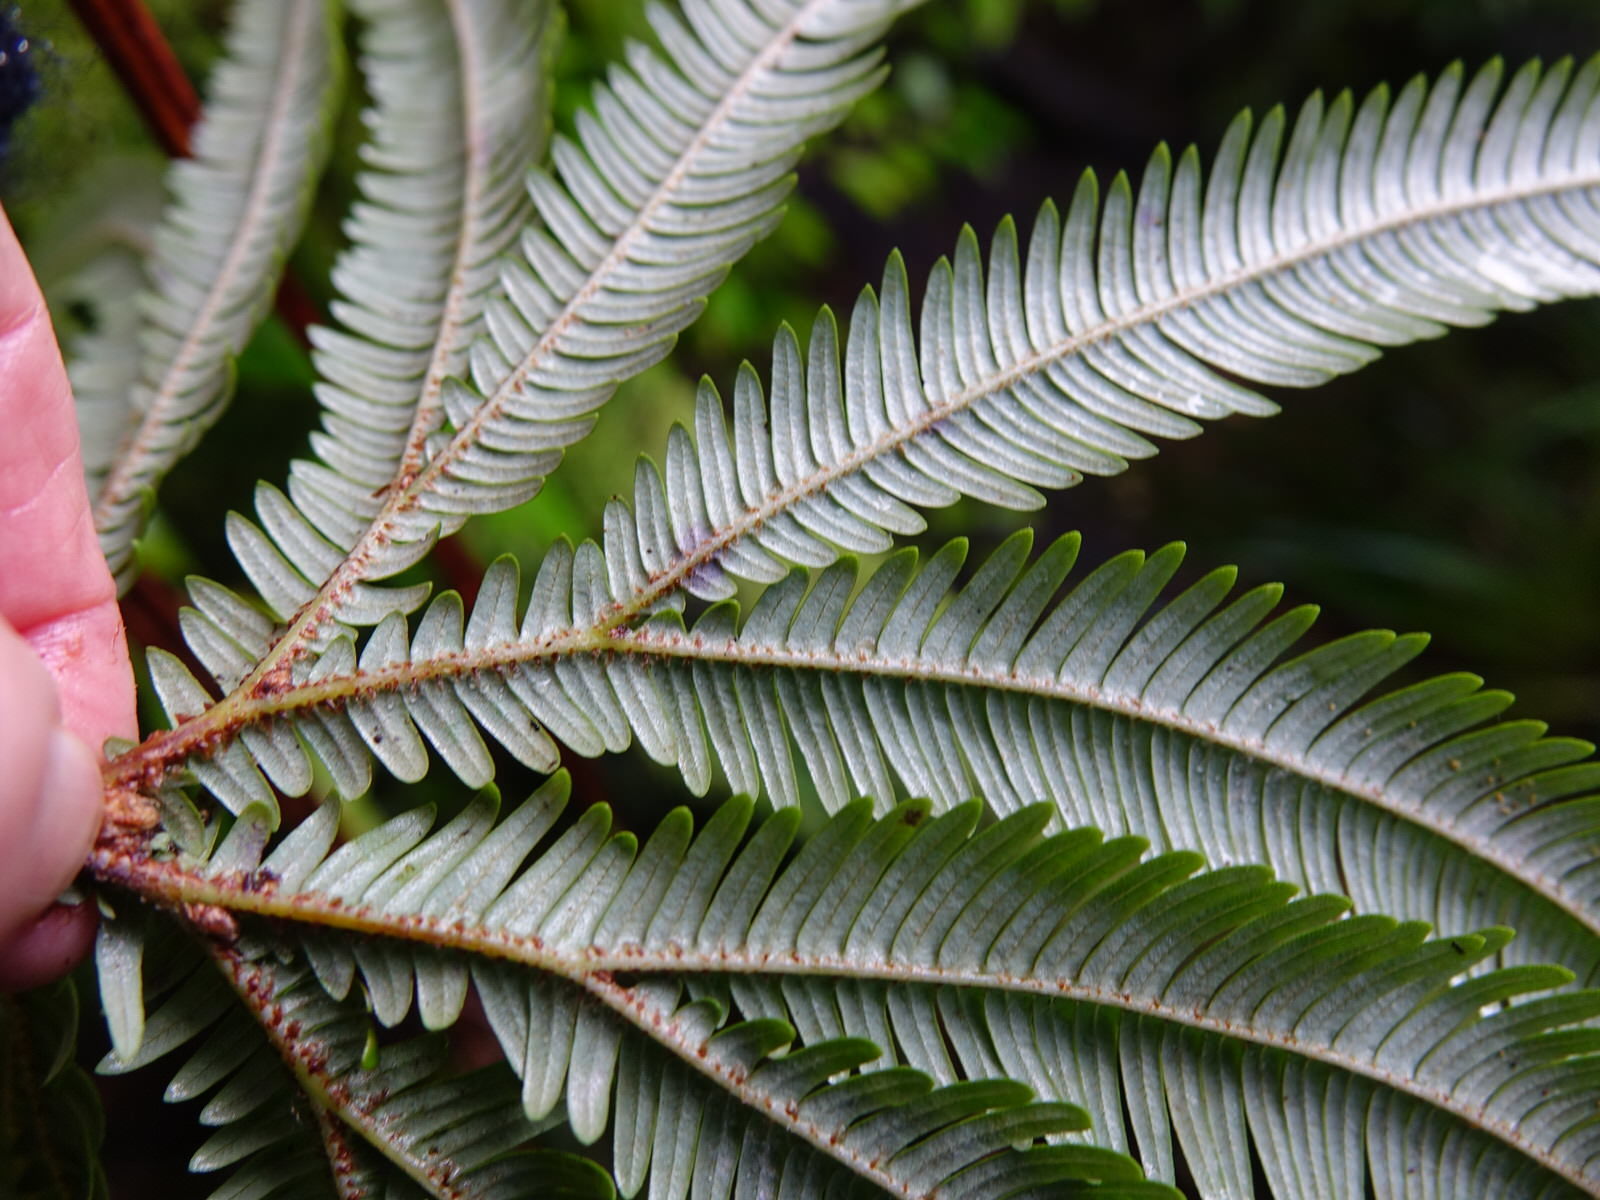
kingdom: Plantae
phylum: Tracheophyta
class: Polypodiopsida
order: Gleicheniales
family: Gleicheniaceae
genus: Sticherus
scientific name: Sticherus cunninghamii
